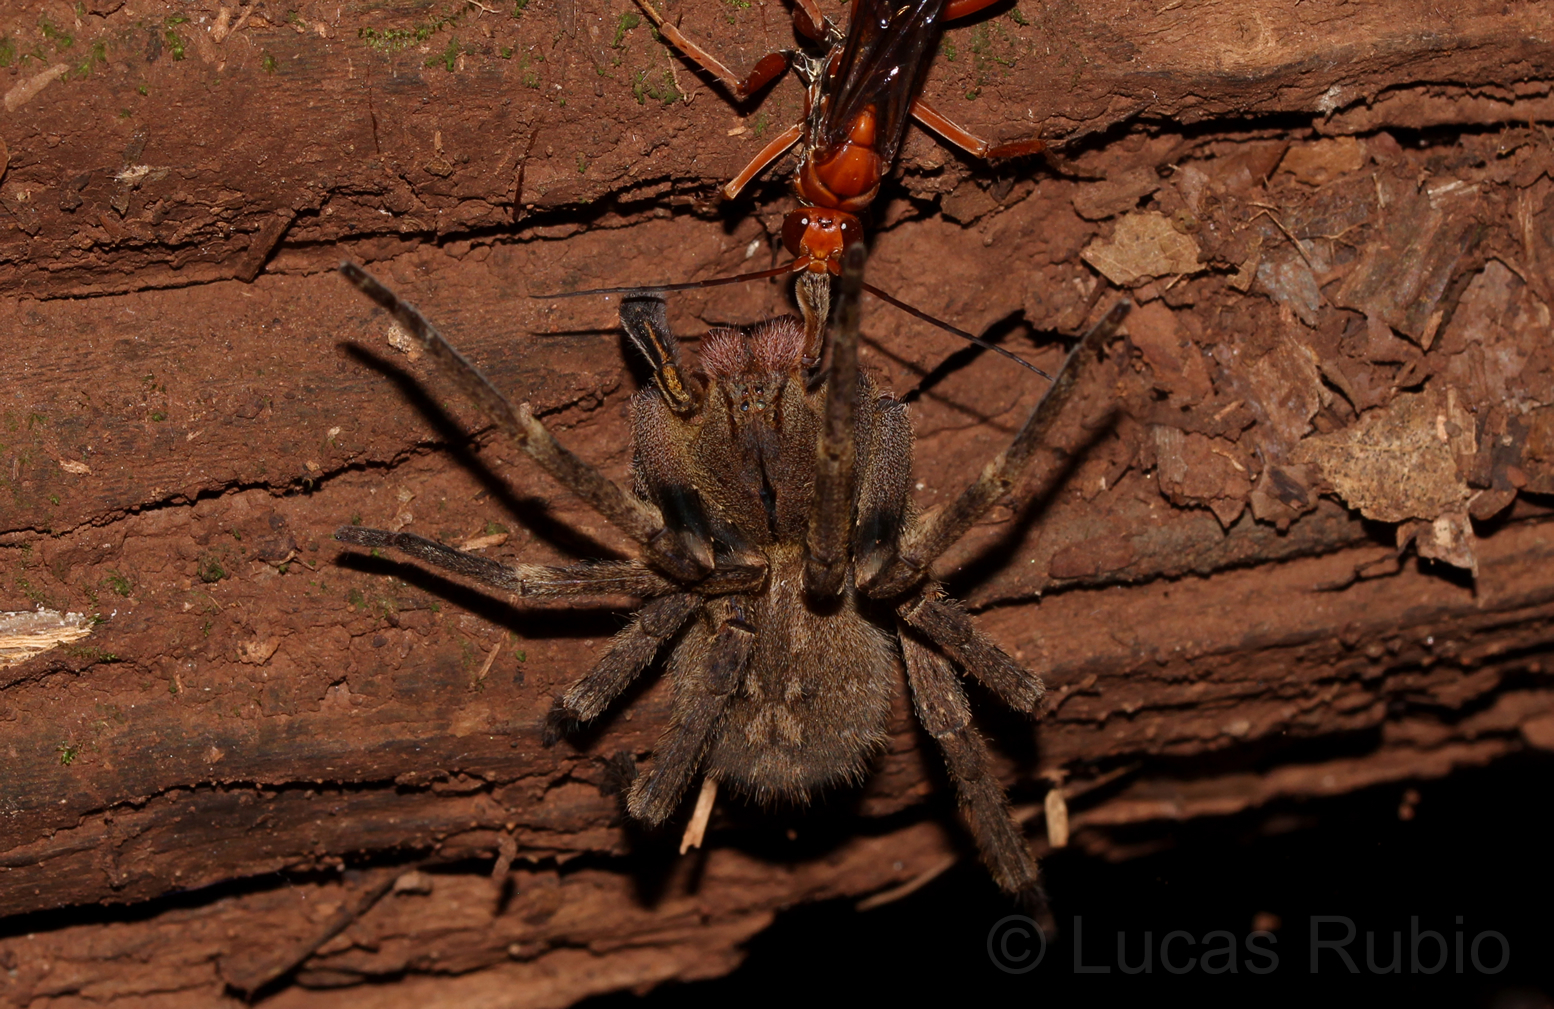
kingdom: Animalia
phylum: Arthropoda
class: Arachnida
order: Araneae
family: Ctenidae
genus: Phoneutria
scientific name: Phoneutria nigriventer
